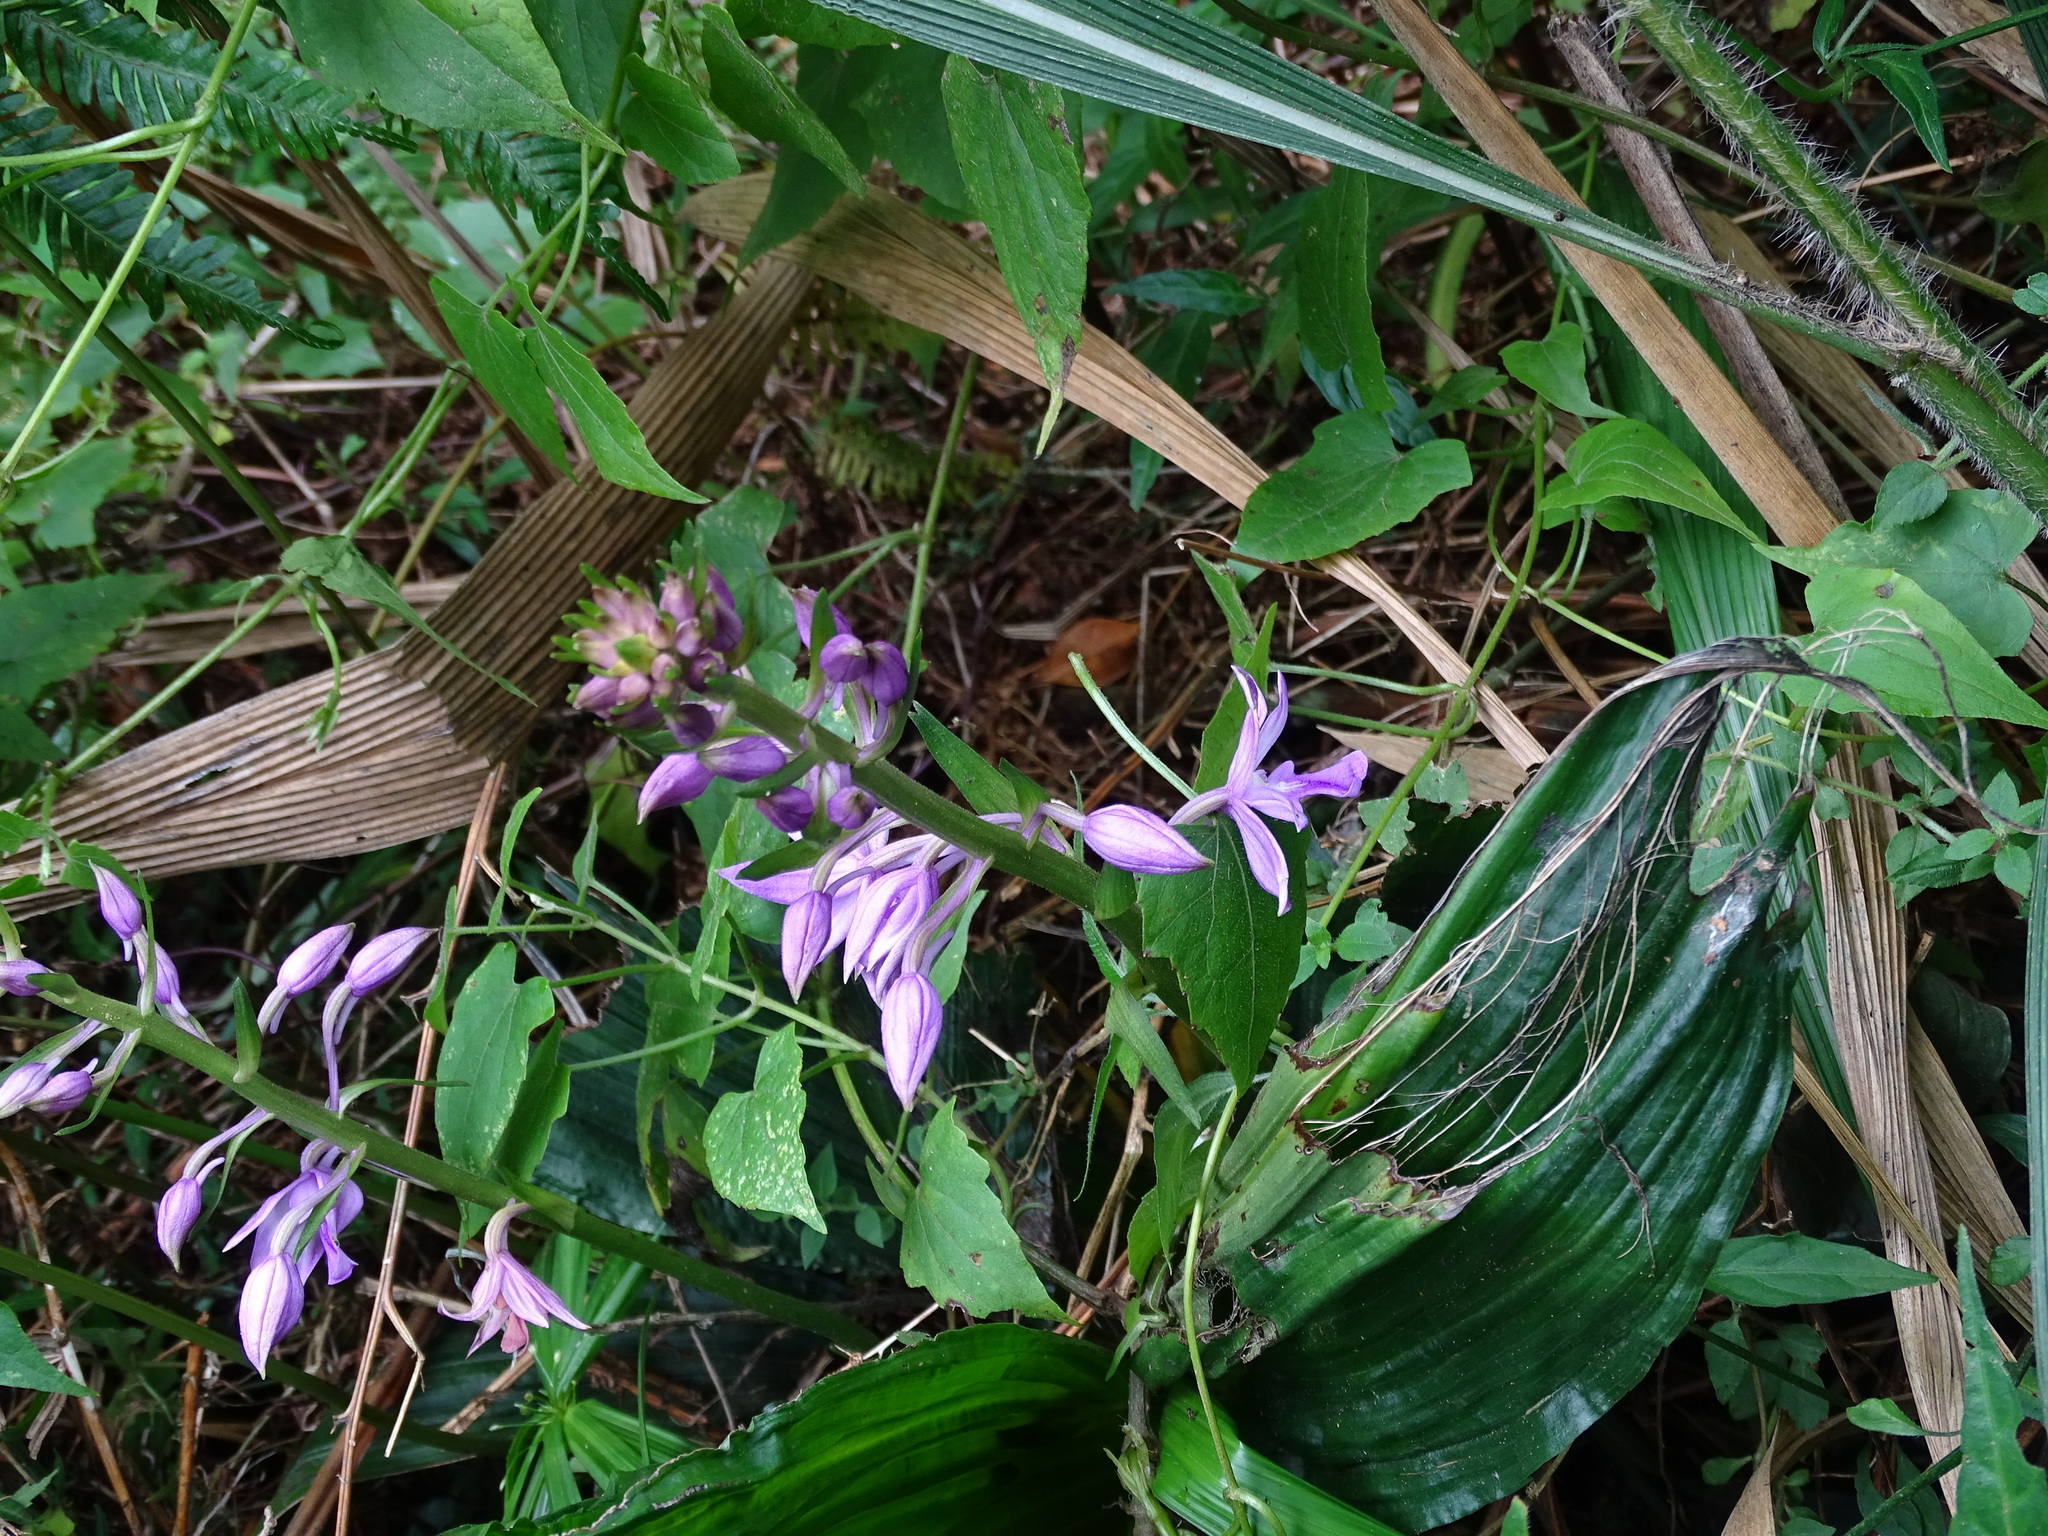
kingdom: Plantae
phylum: Tracheophyta
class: Liliopsida
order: Asparagales
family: Orchidaceae
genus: Calanthe
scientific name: Calanthe sylvatica
